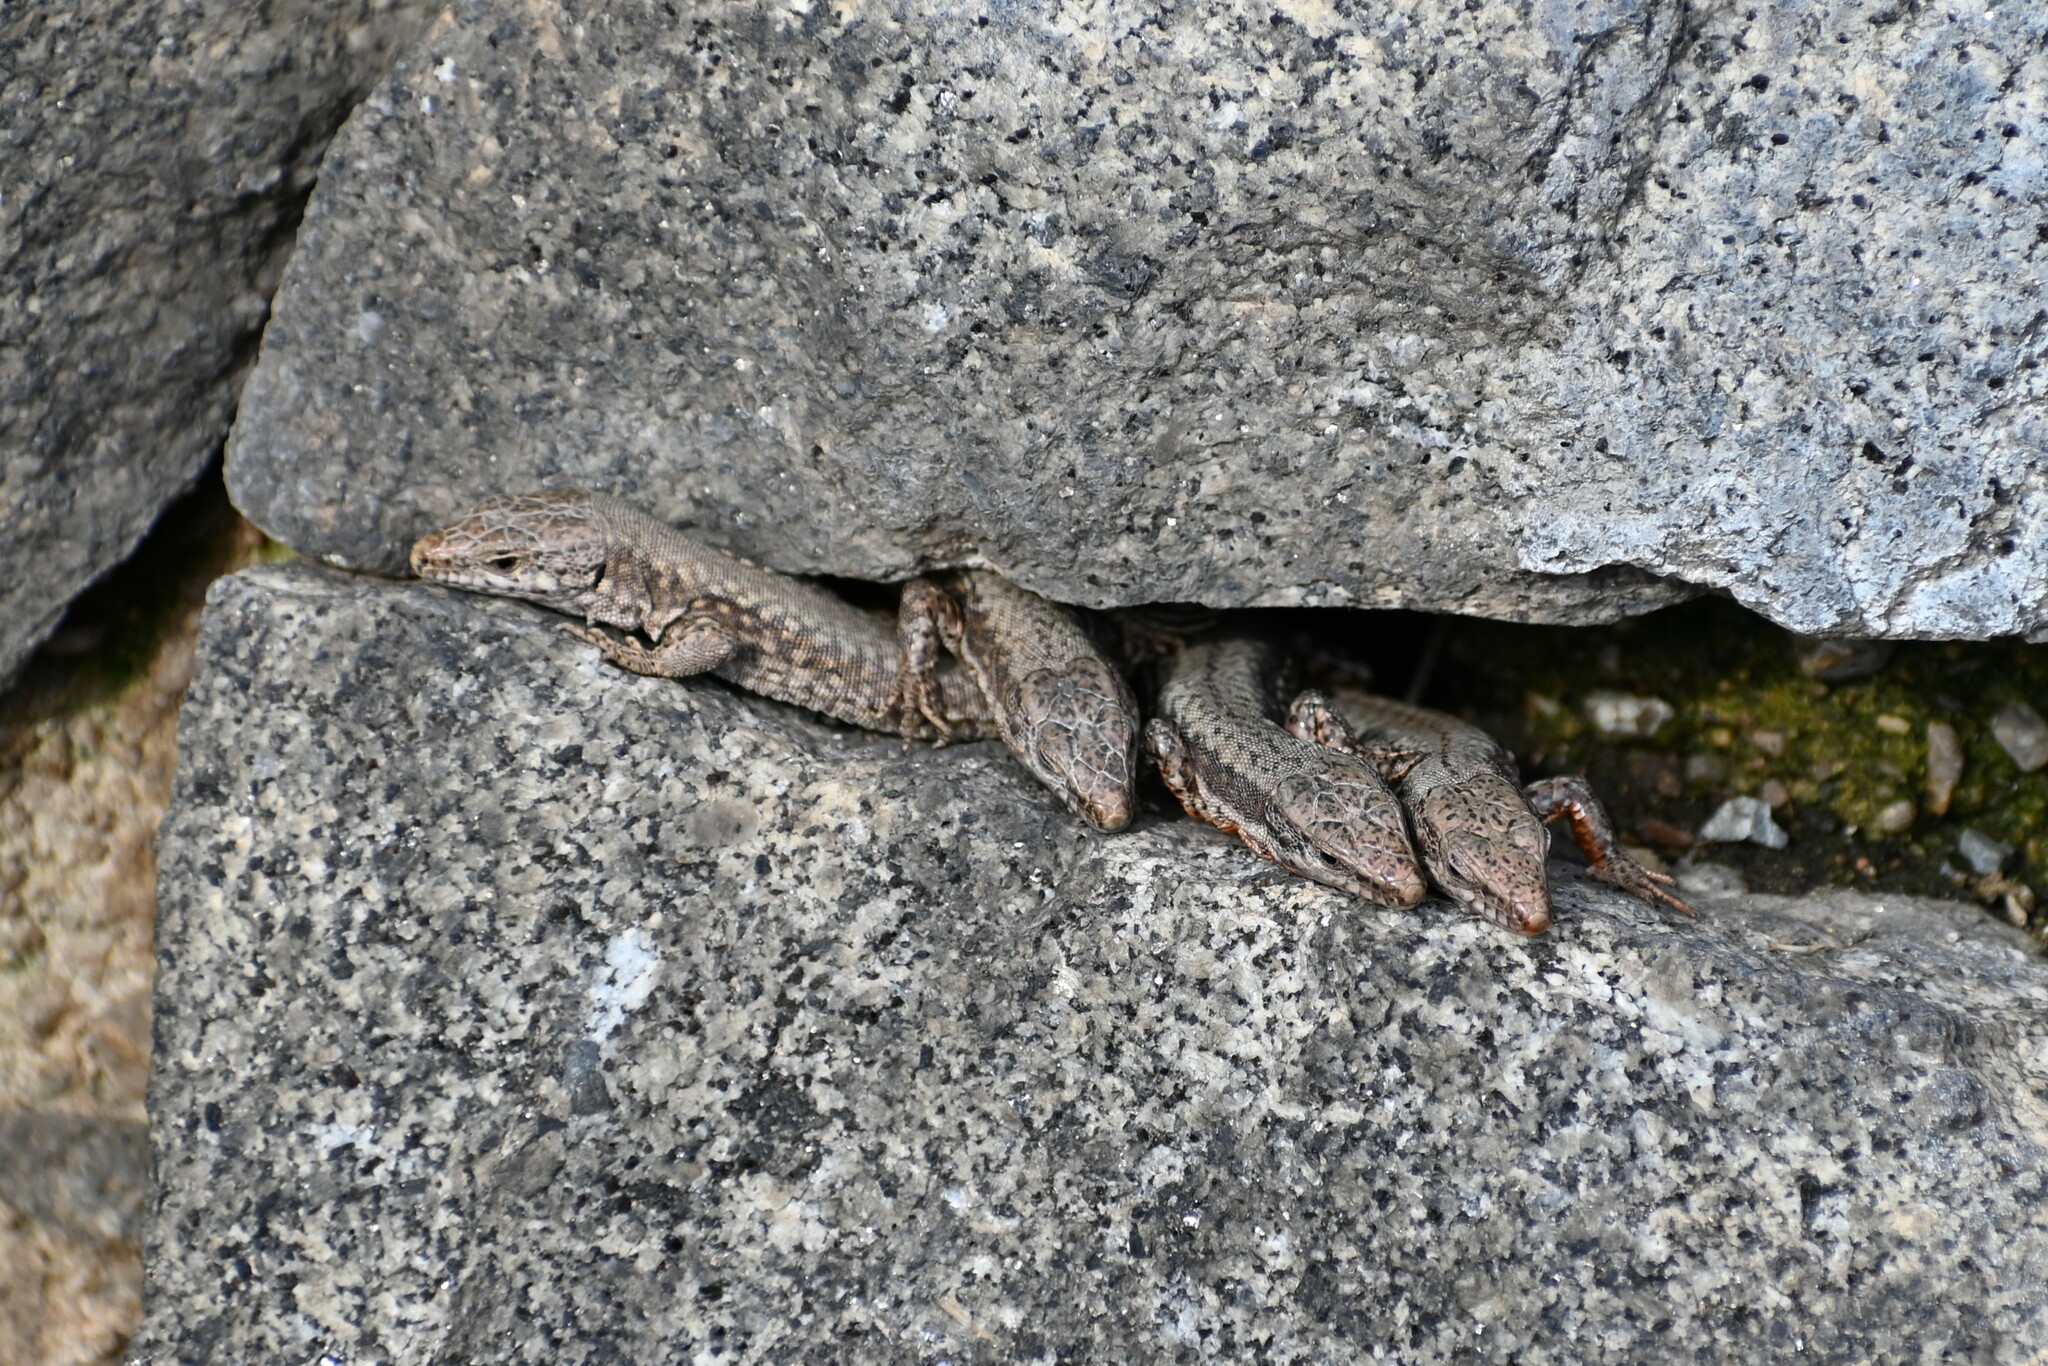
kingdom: Animalia
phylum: Chordata
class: Squamata
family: Lacertidae
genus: Podarcis
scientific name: Podarcis muralis
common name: Common wall lizard
